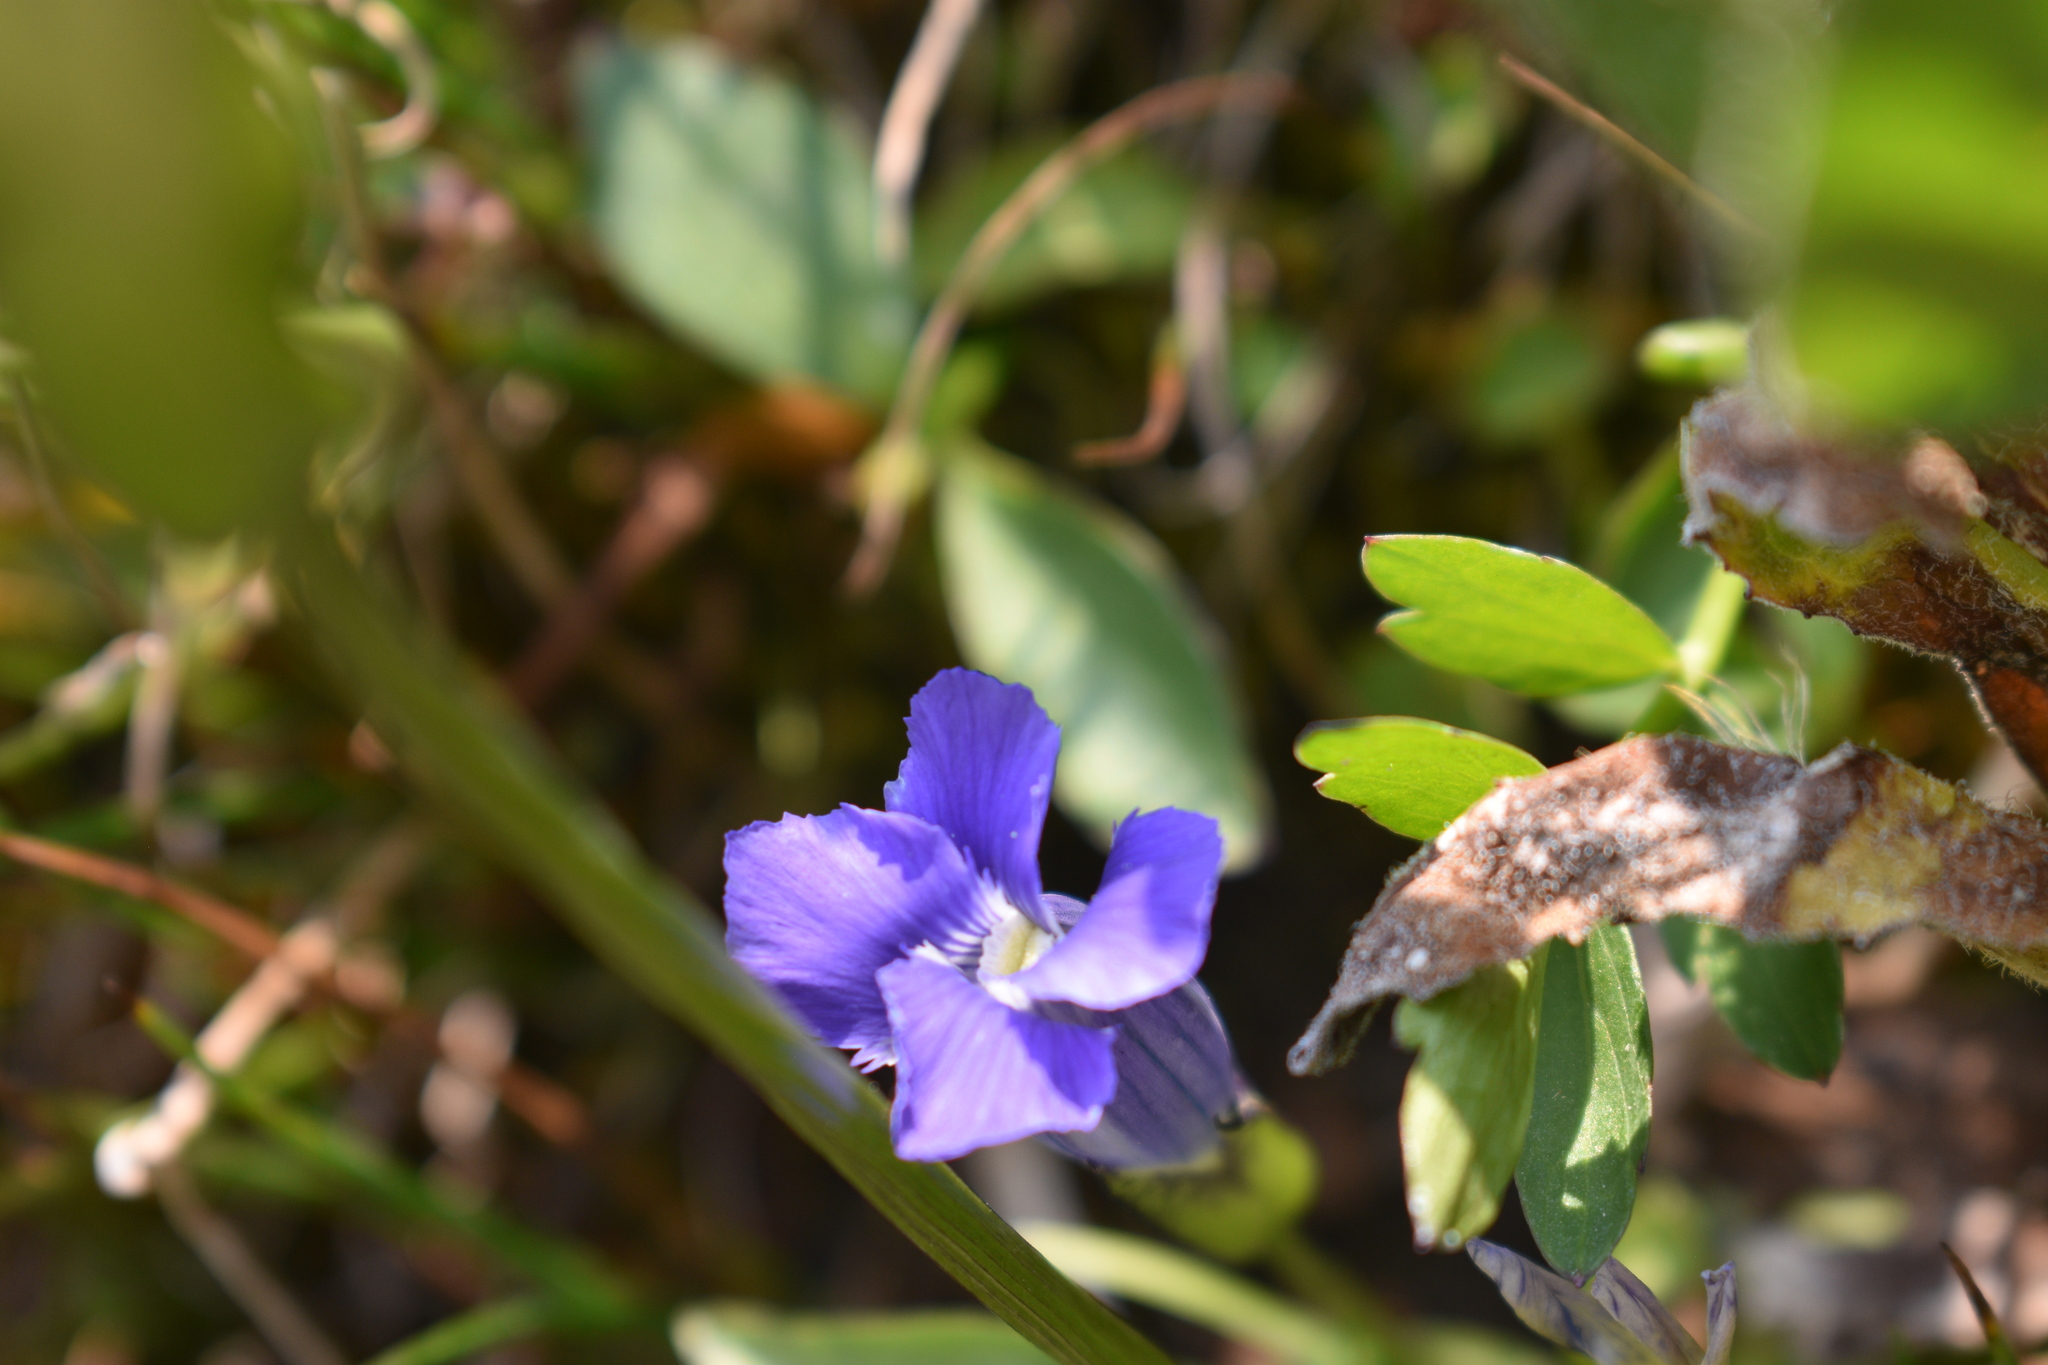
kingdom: Plantae
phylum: Tracheophyta
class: Magnoliopsida
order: Gentianales
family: Gentianaceae
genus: Gentianopsis
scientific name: Gentianopsis thermalis
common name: Rocky mountain fringed-gentian
